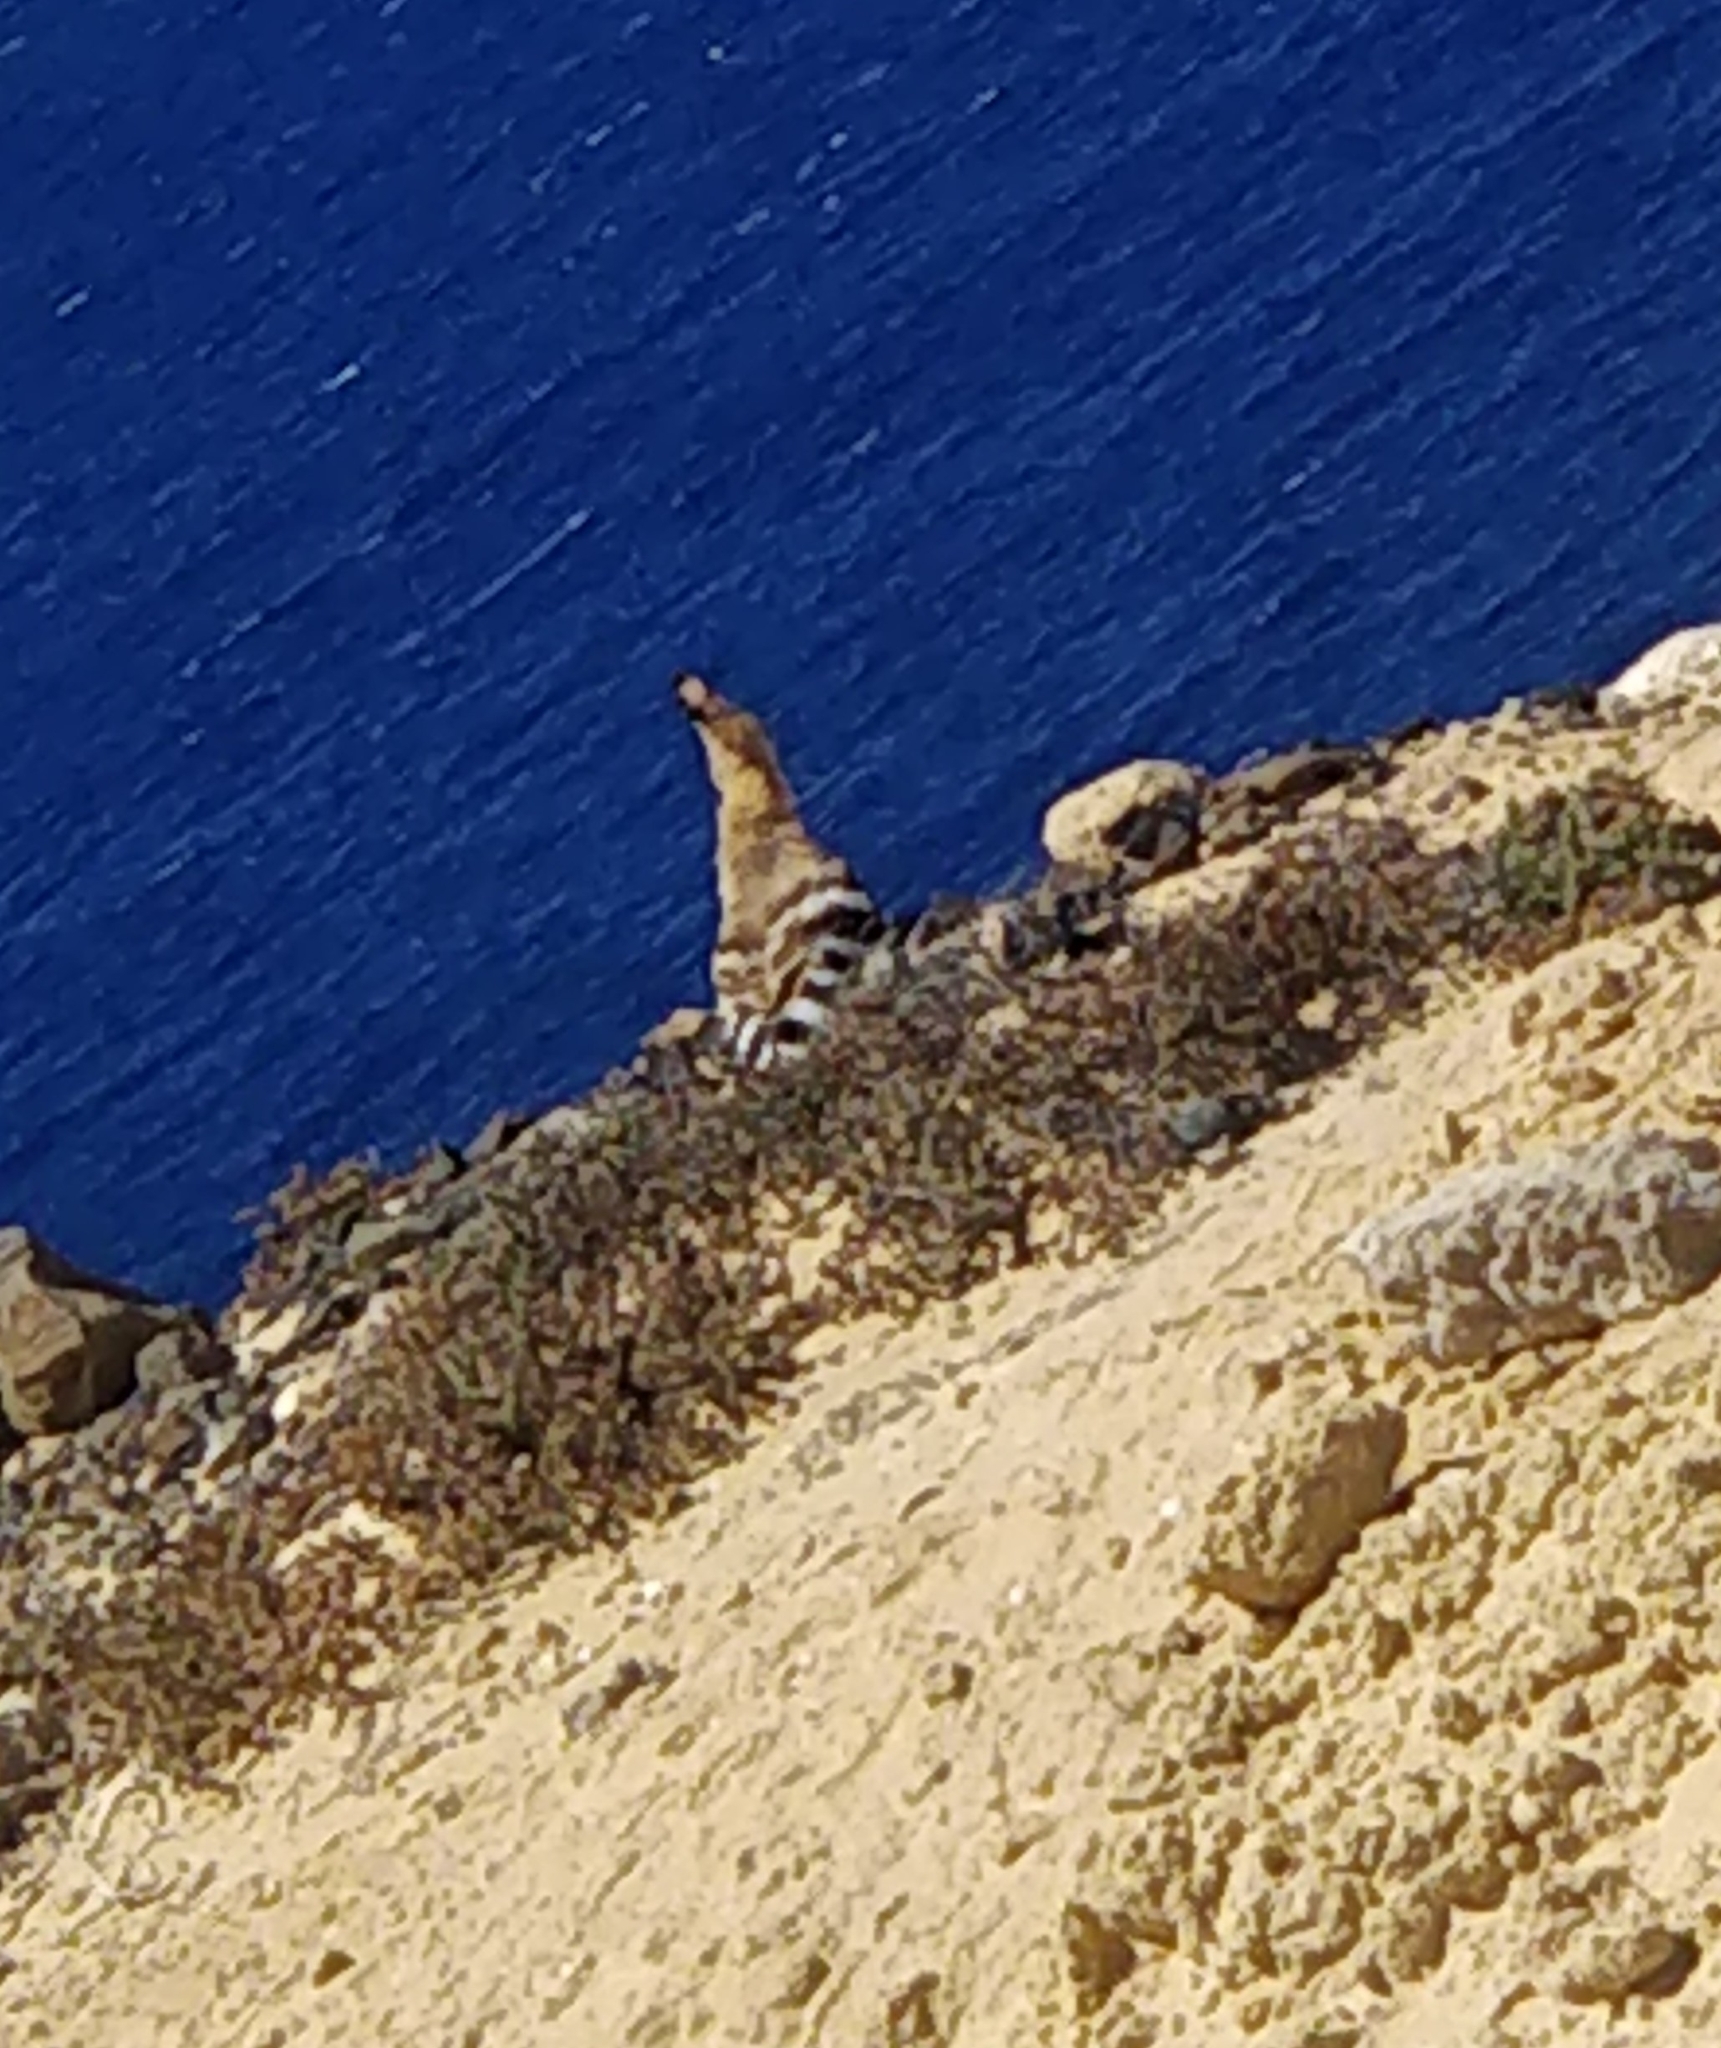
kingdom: Animalia
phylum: Chordata
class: Aves
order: Bucerotiformes
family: Upupidae
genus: Upupa
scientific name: Upupa epops
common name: Eurasian hoopoe
